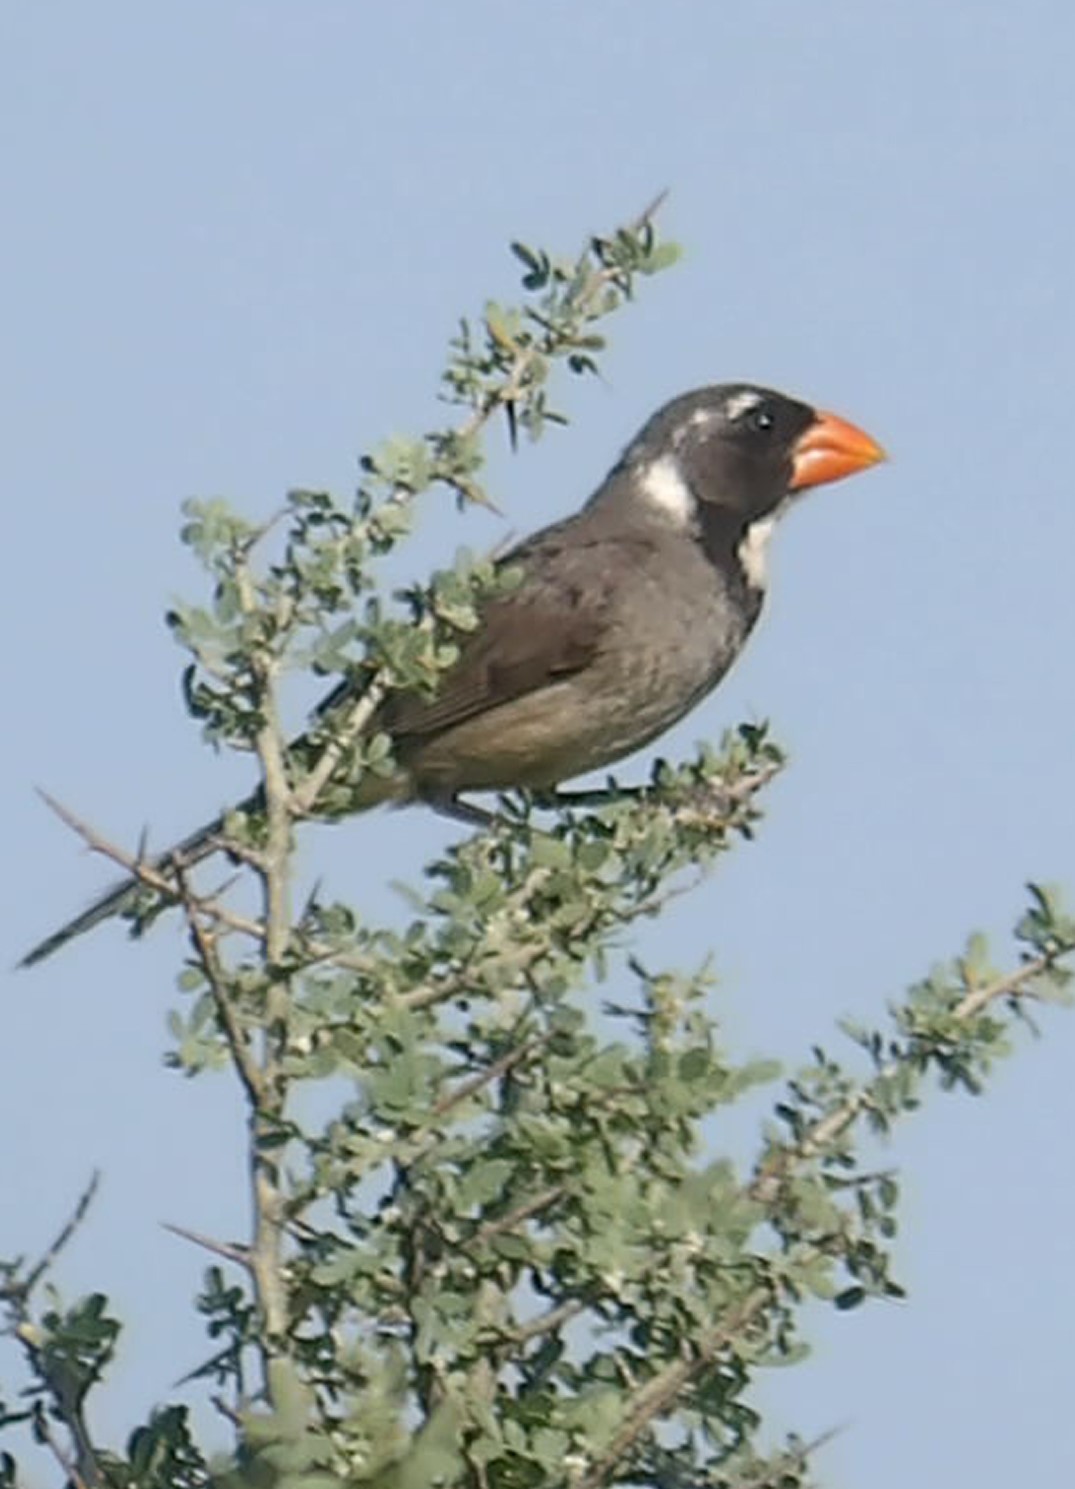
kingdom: Animalia
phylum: Chordata
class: Aves
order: Passeriformes
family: Thraupidae
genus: Saltator
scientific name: Saltator aurantiirostris
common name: Golden-billed saltator
